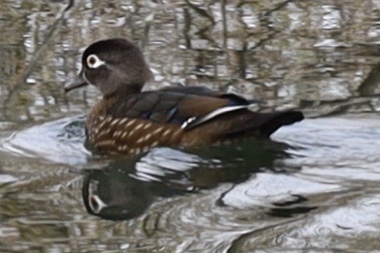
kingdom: Animalia
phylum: Chordata
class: Aves
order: Anseriformes
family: Anatidae
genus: Aix
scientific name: Aix sponsa
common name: Wood duck
